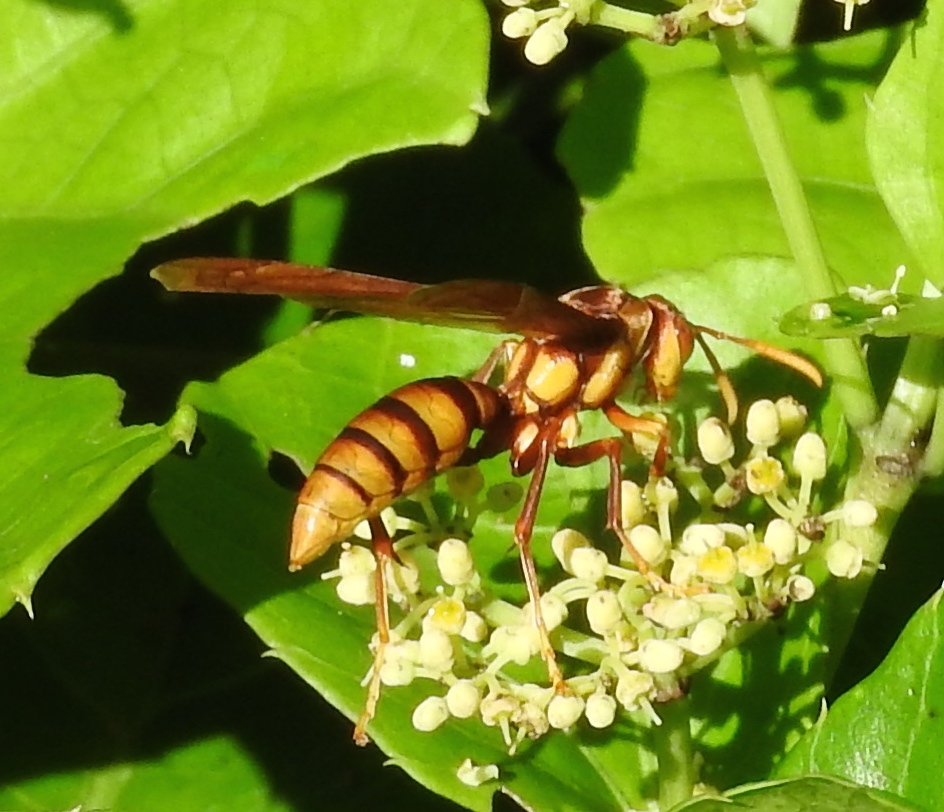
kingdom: Animalia
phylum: Arthropoda
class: Insecta
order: Hymenoptera
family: Eumenidae
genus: Polistes
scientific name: Polistes carnifex
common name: Paper wasp
